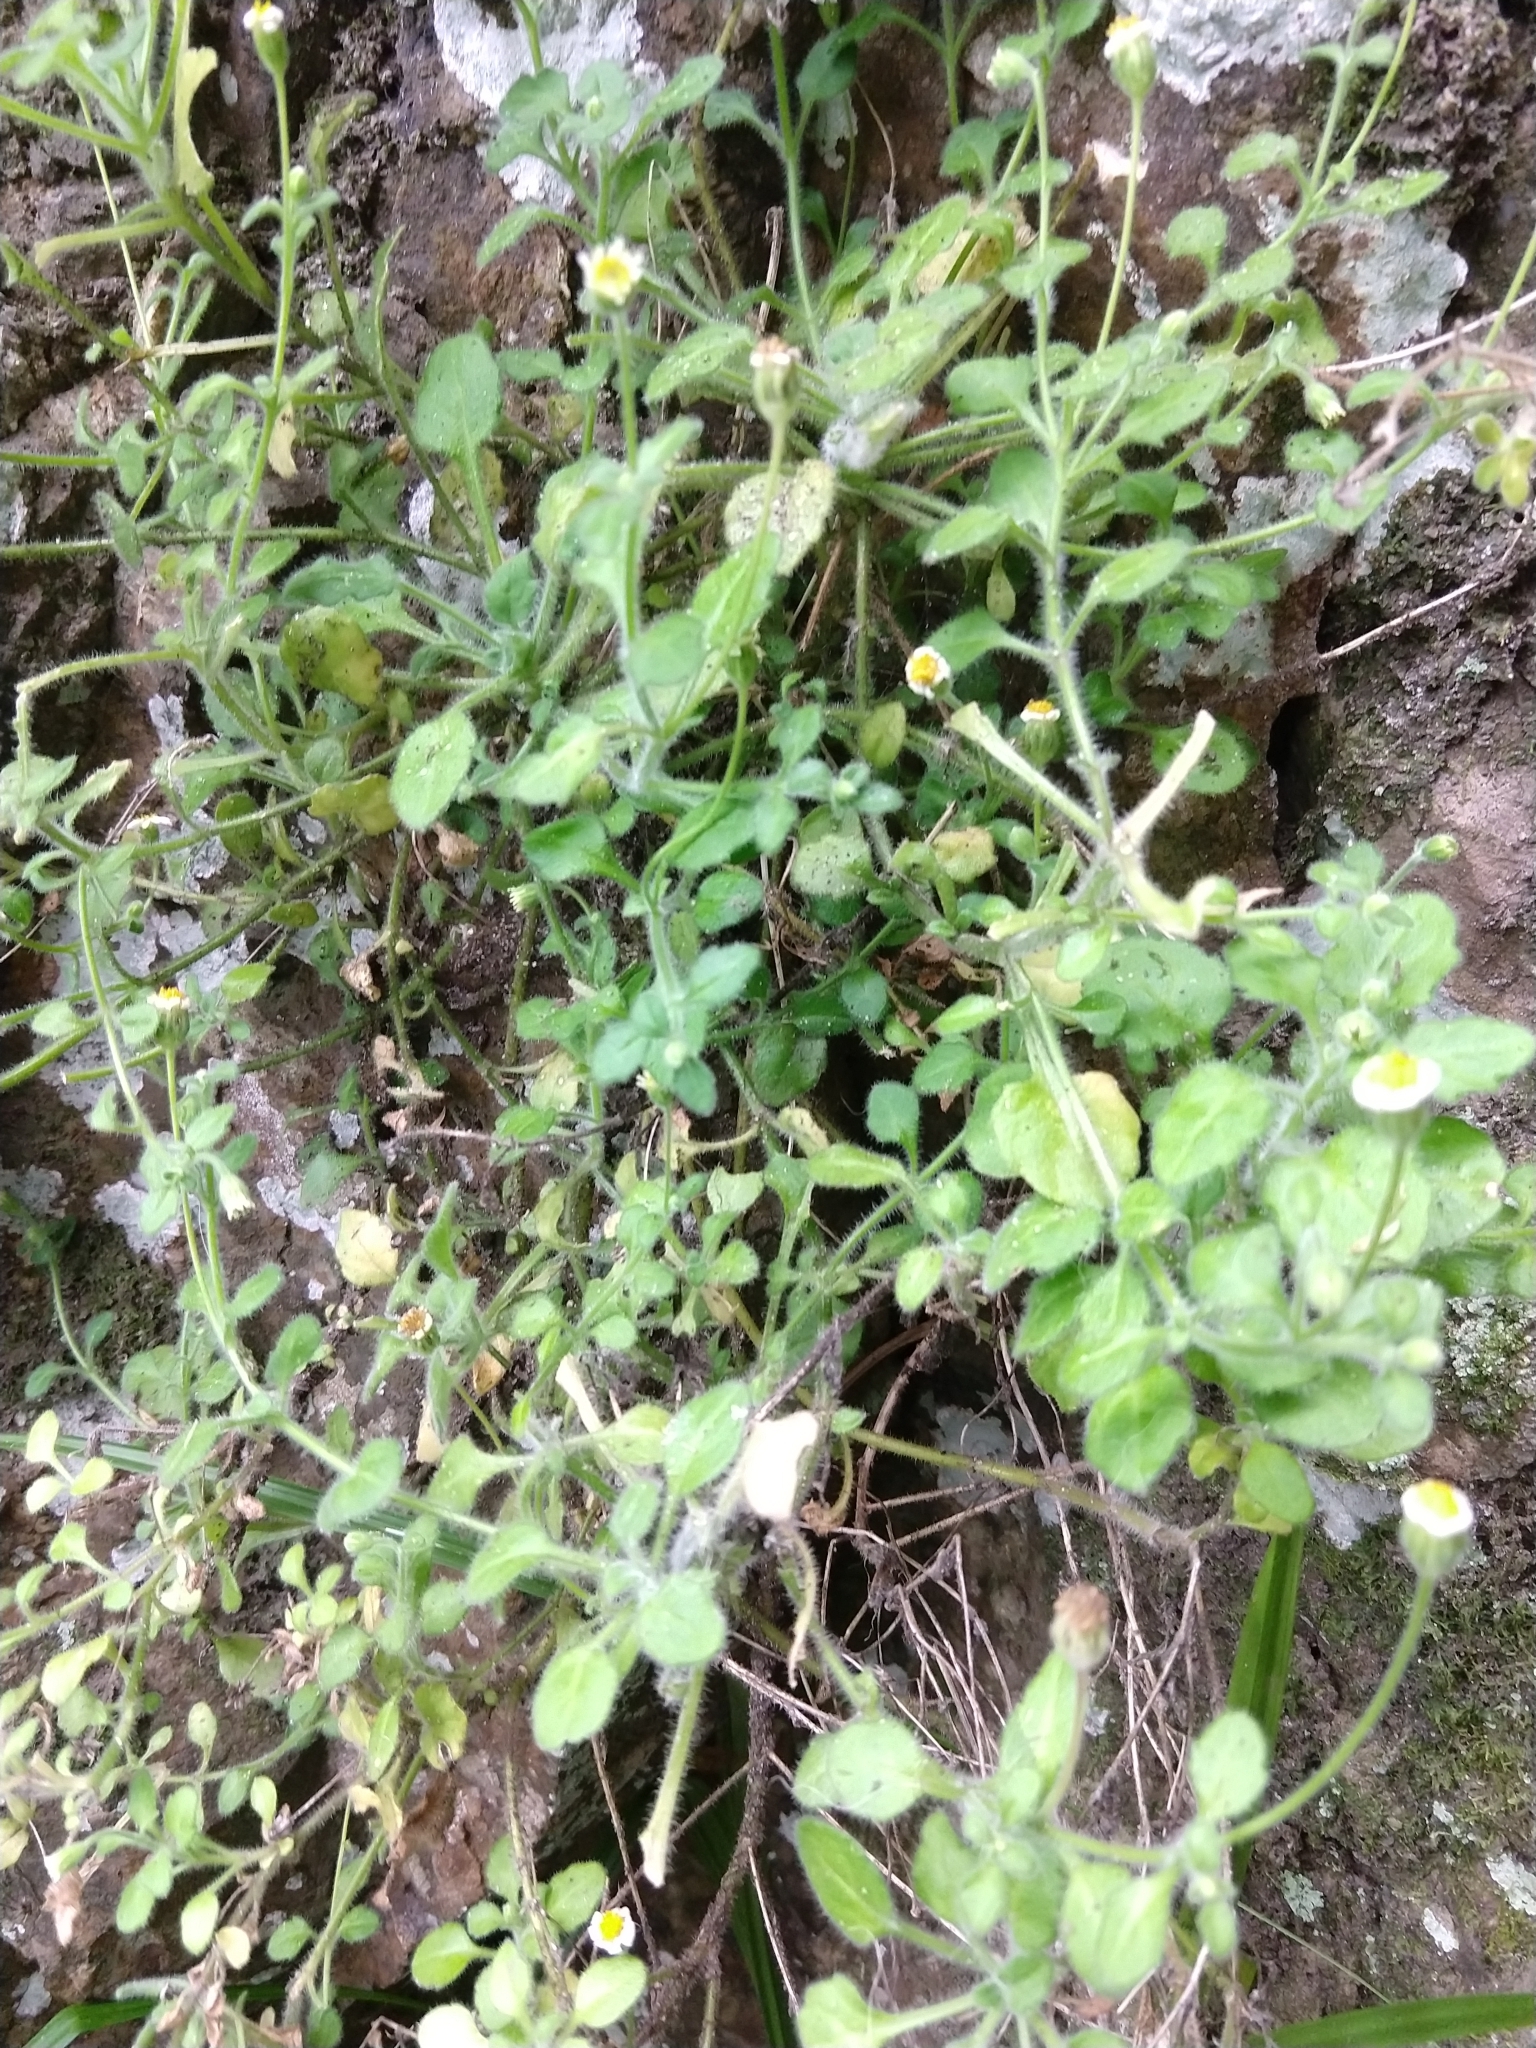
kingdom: Plantae
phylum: Tracheophyta
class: Magnoliopsida
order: Asterales
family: Asteraceae
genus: Felicia
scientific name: Felicia cymbalariae
